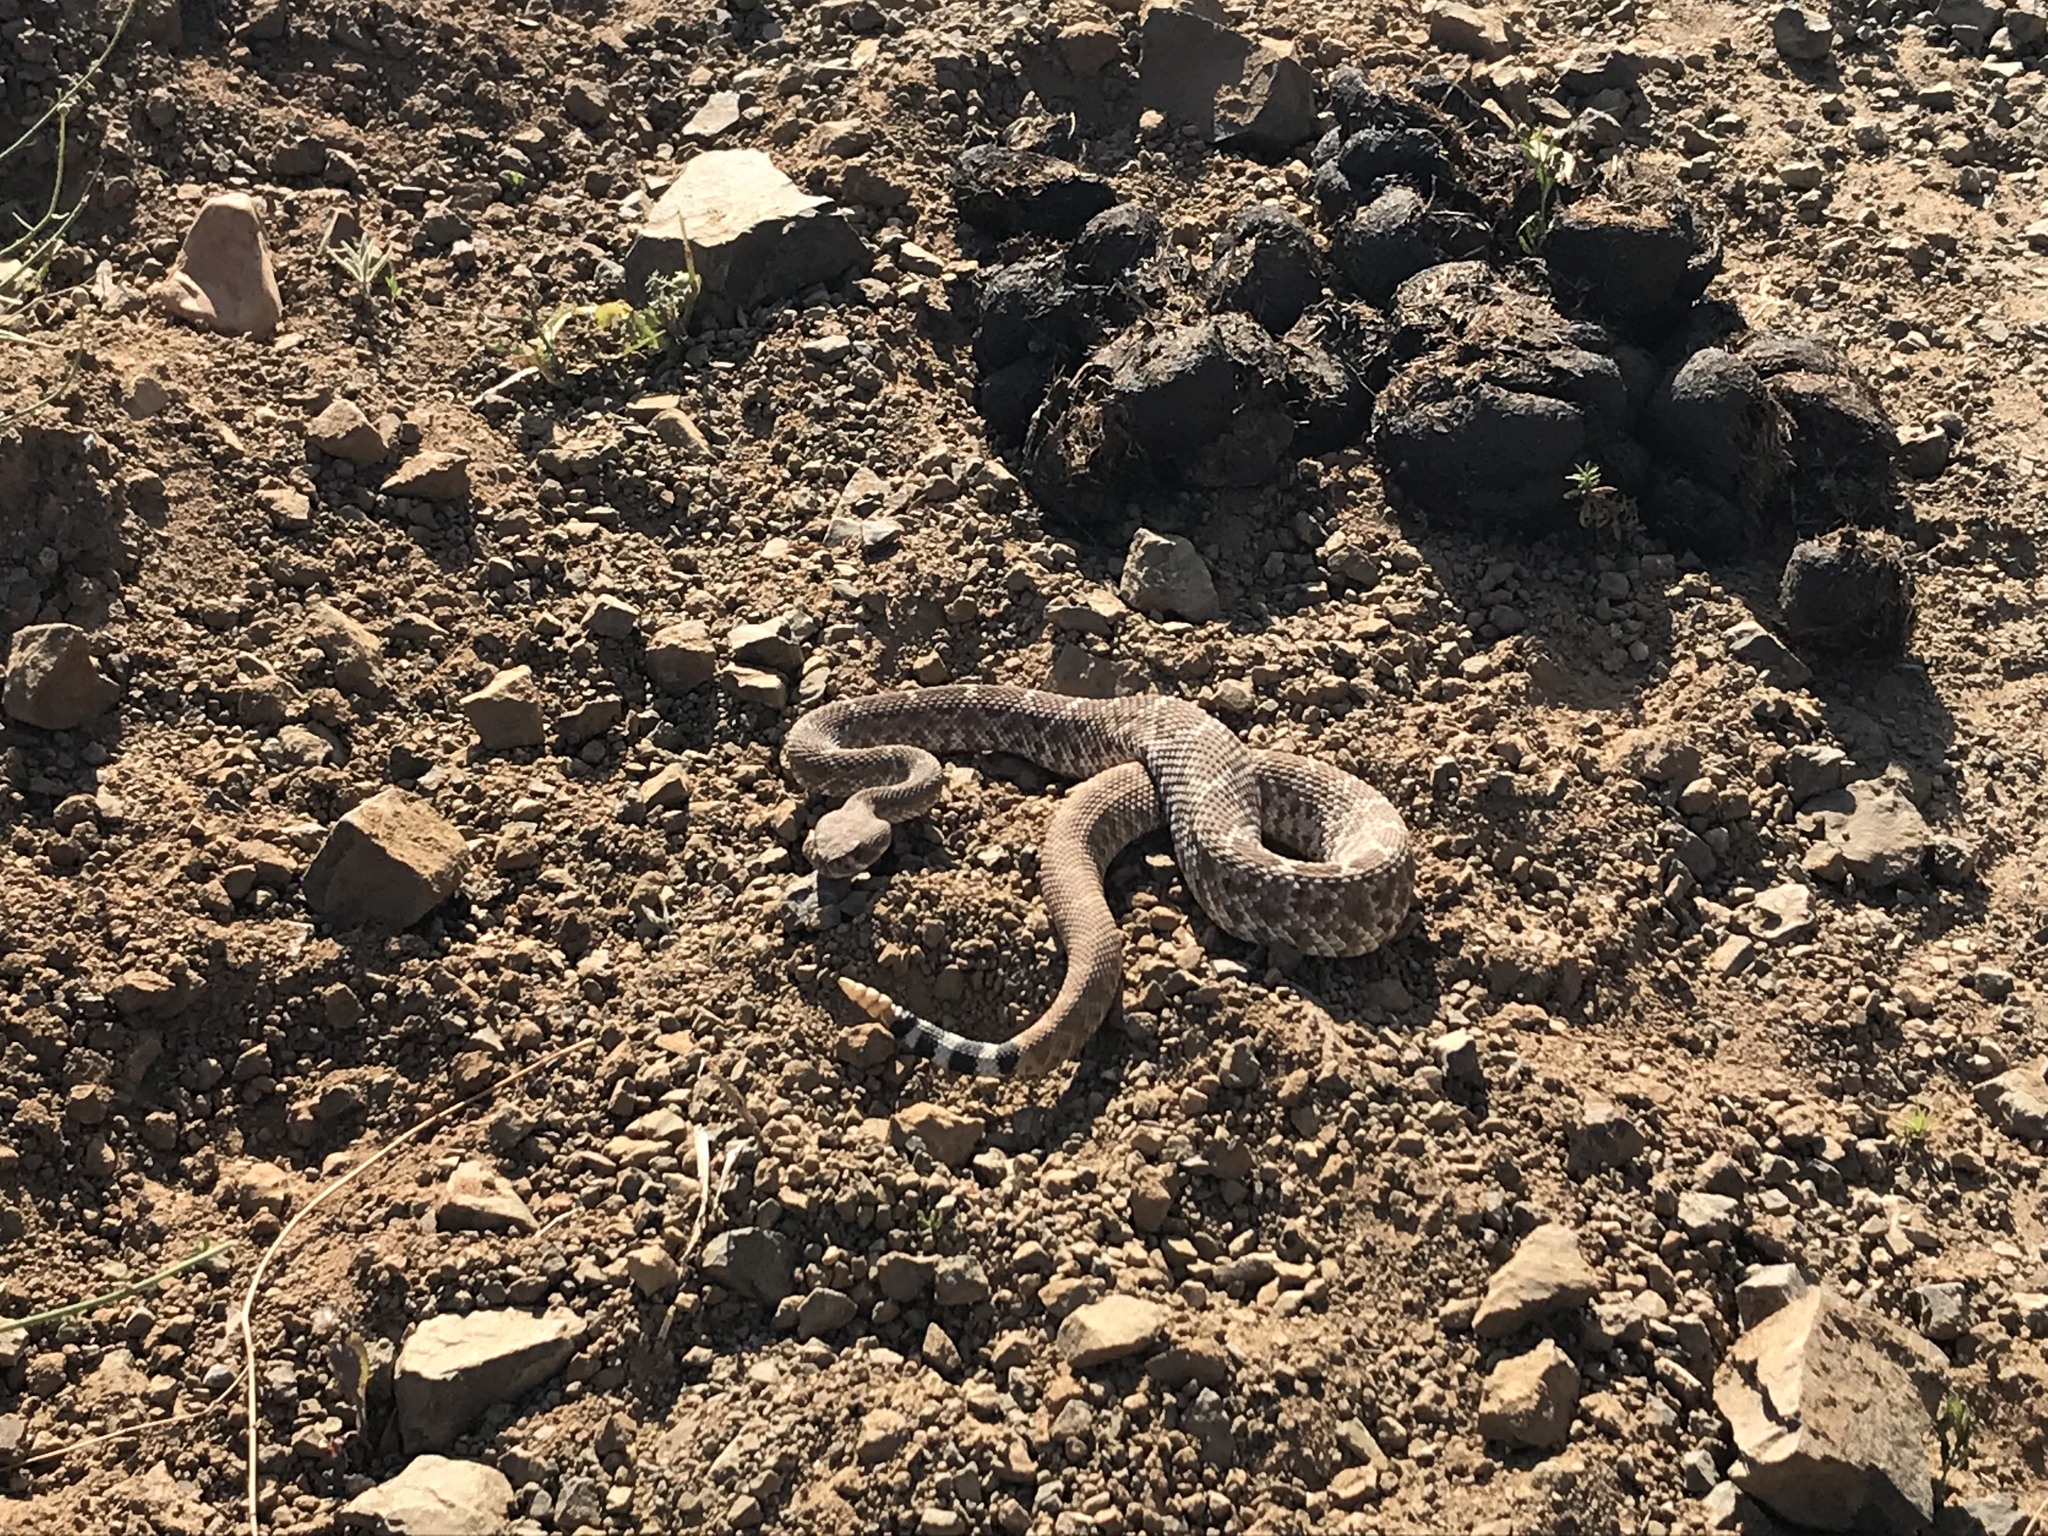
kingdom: Animalia
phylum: Chordata
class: Squamata
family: Viperidae
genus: Crotalus
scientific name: Crotalus ruber
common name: Red diamond rattlesnake
